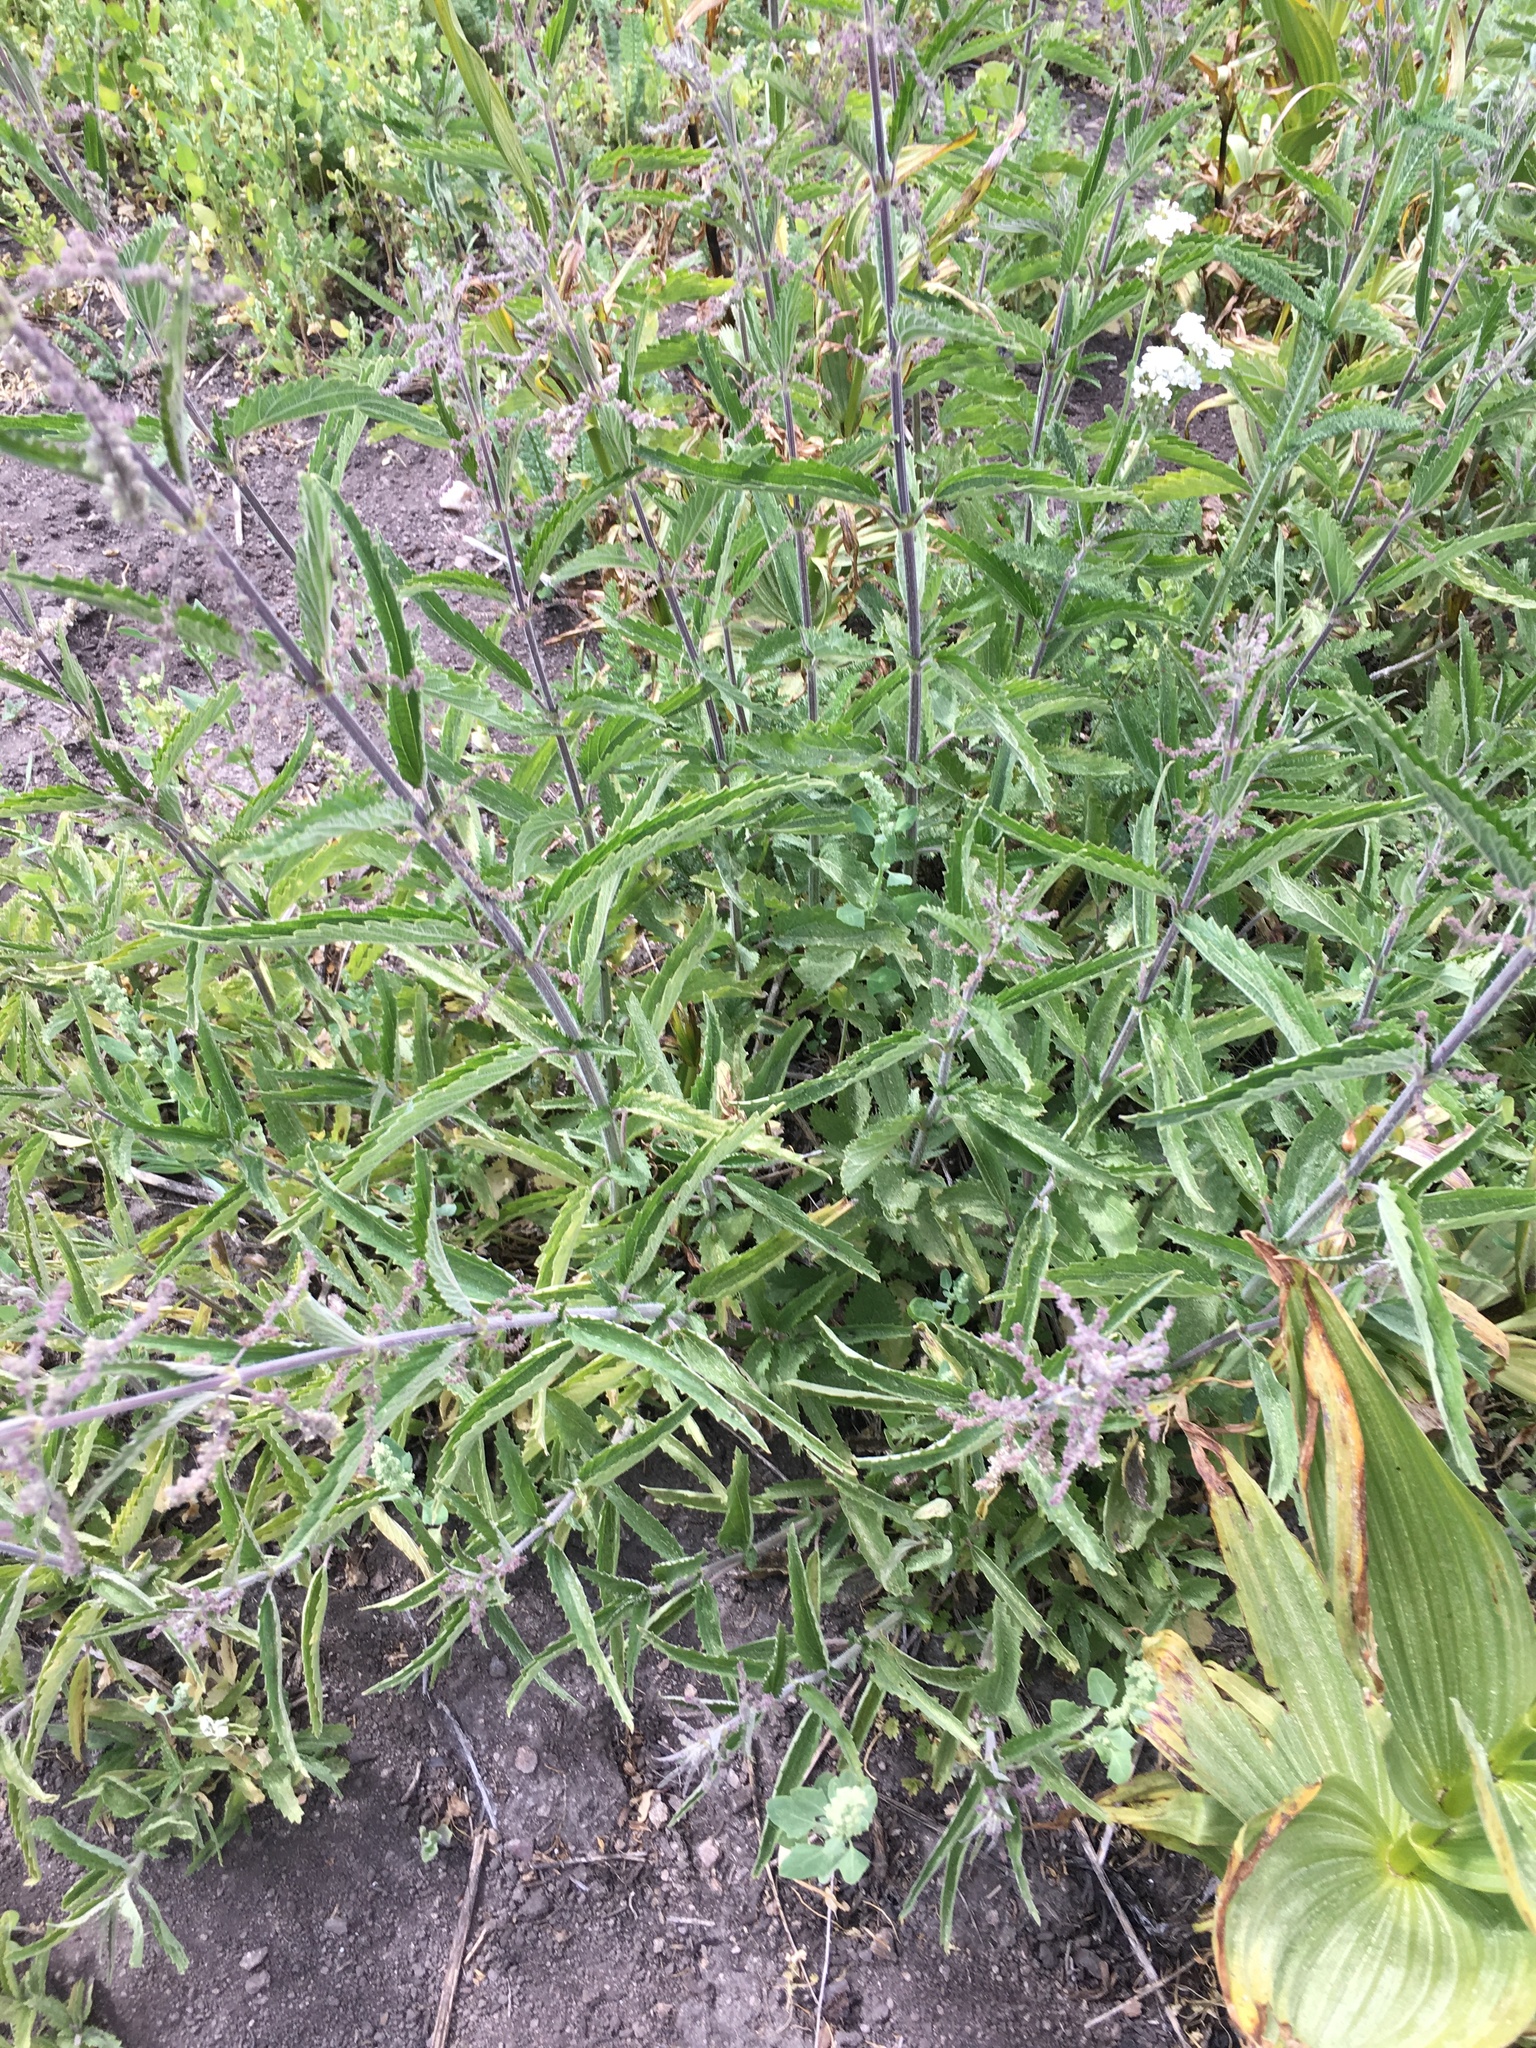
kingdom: Plantae
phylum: Tracheophyta
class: Magnoliopsida
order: Rosales
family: Urticaceae
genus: Urtica
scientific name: Urtica dioica
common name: Common nettle
